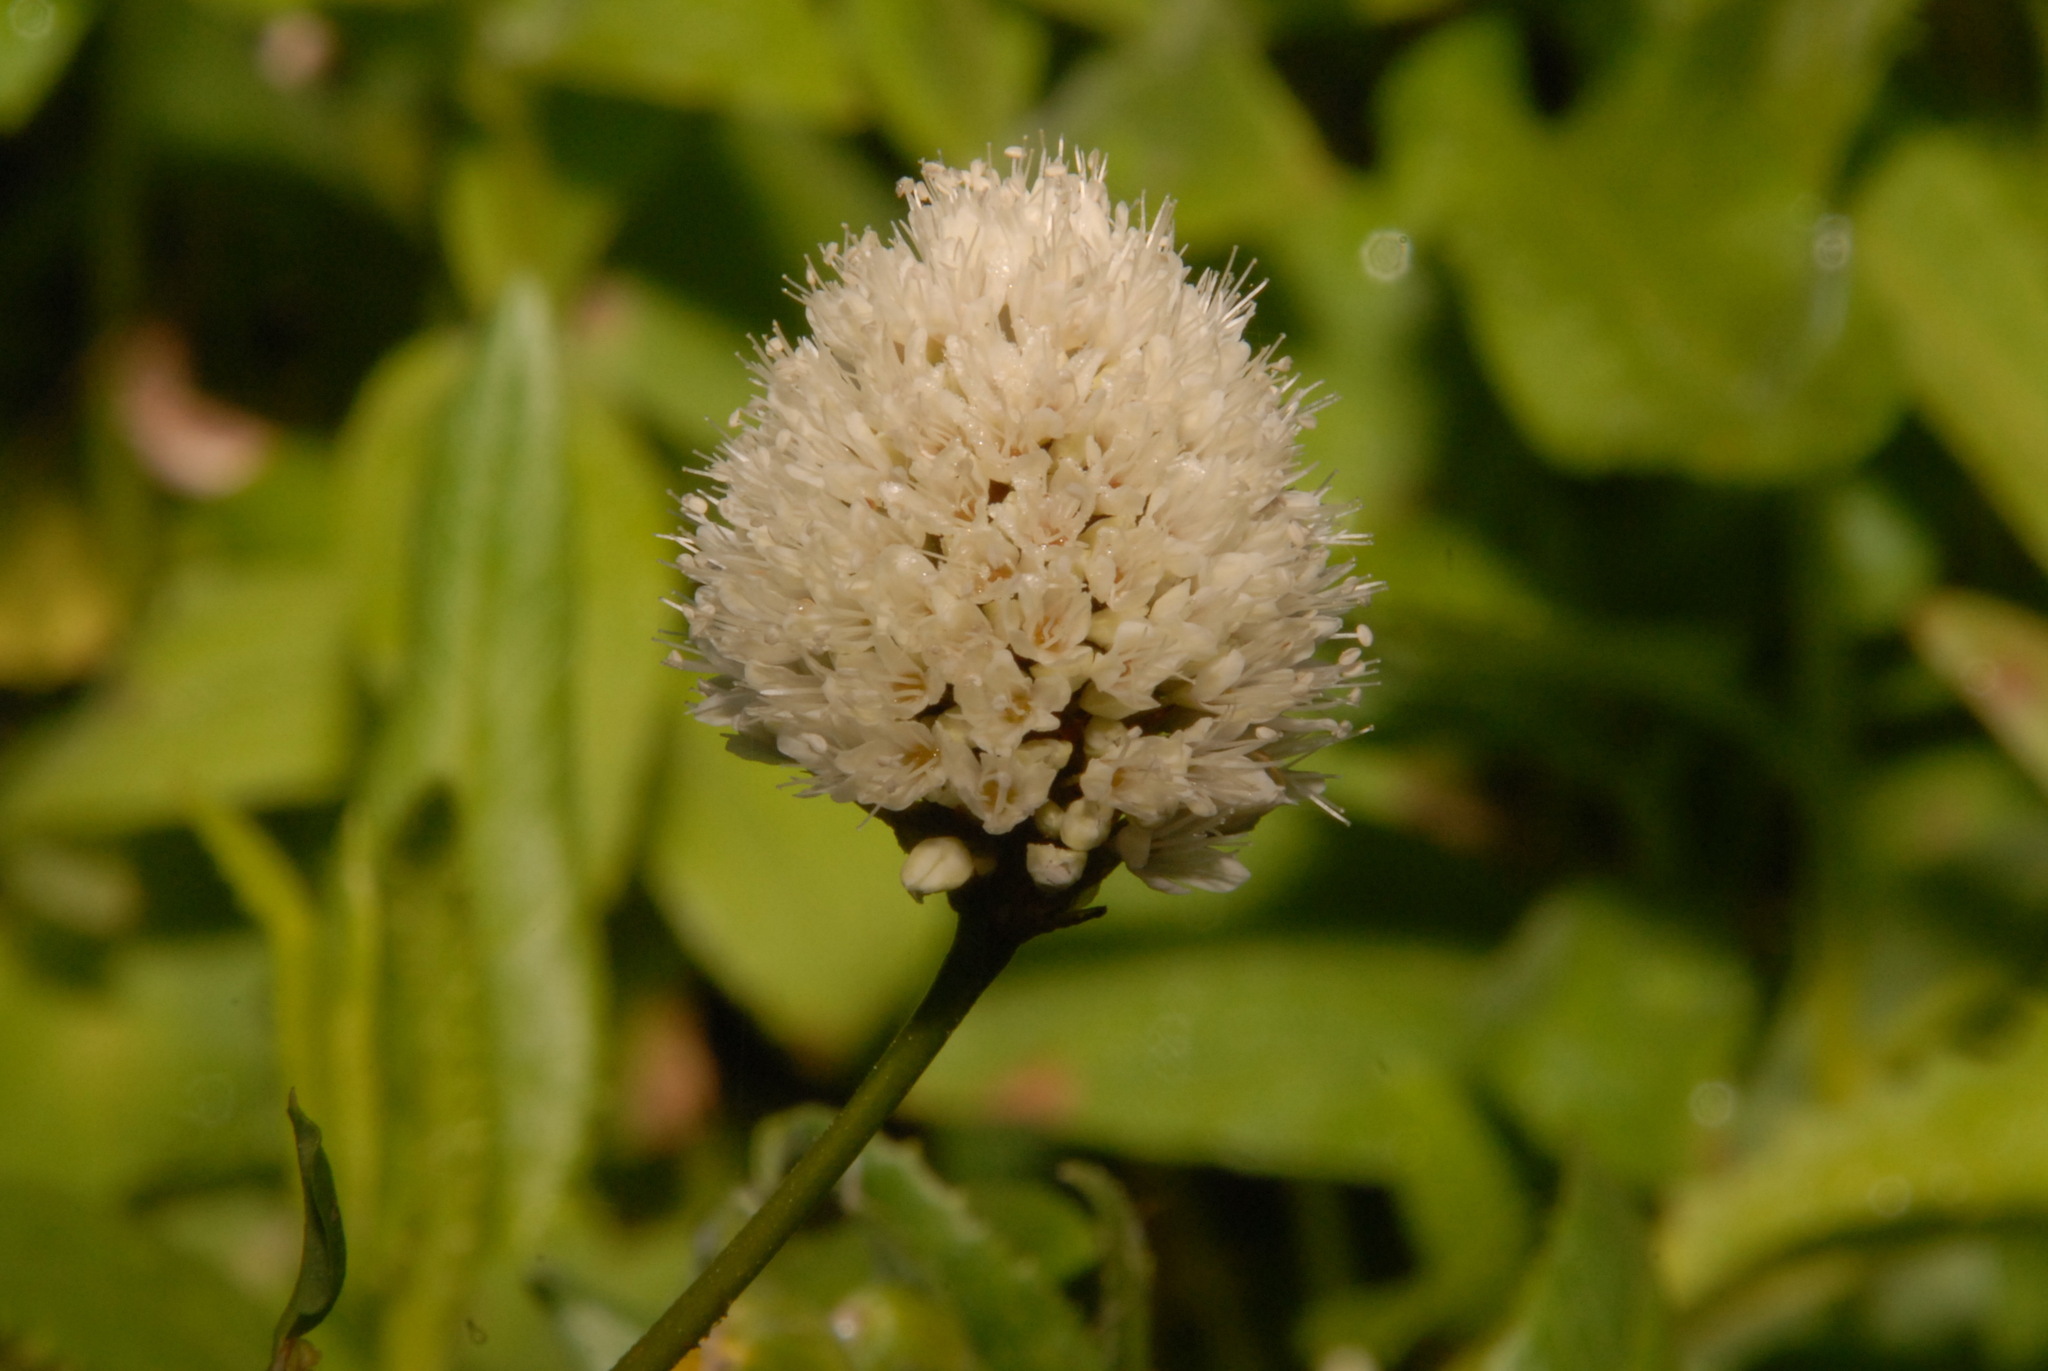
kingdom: Plantae
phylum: Tracheophyta
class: Magnoliopsida
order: Caryophyllales
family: Polygonaceae
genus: Bistorta
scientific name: Bistorta bistortoides
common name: American bistort
